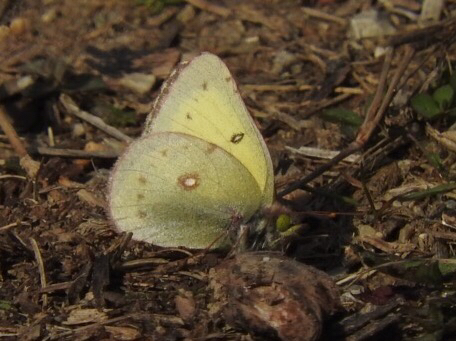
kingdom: Animalia
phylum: Arthropoda
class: Insecta
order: Lepidoptera
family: Pieridae
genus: Colias
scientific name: Colias philodice
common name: Clouded sulphur
